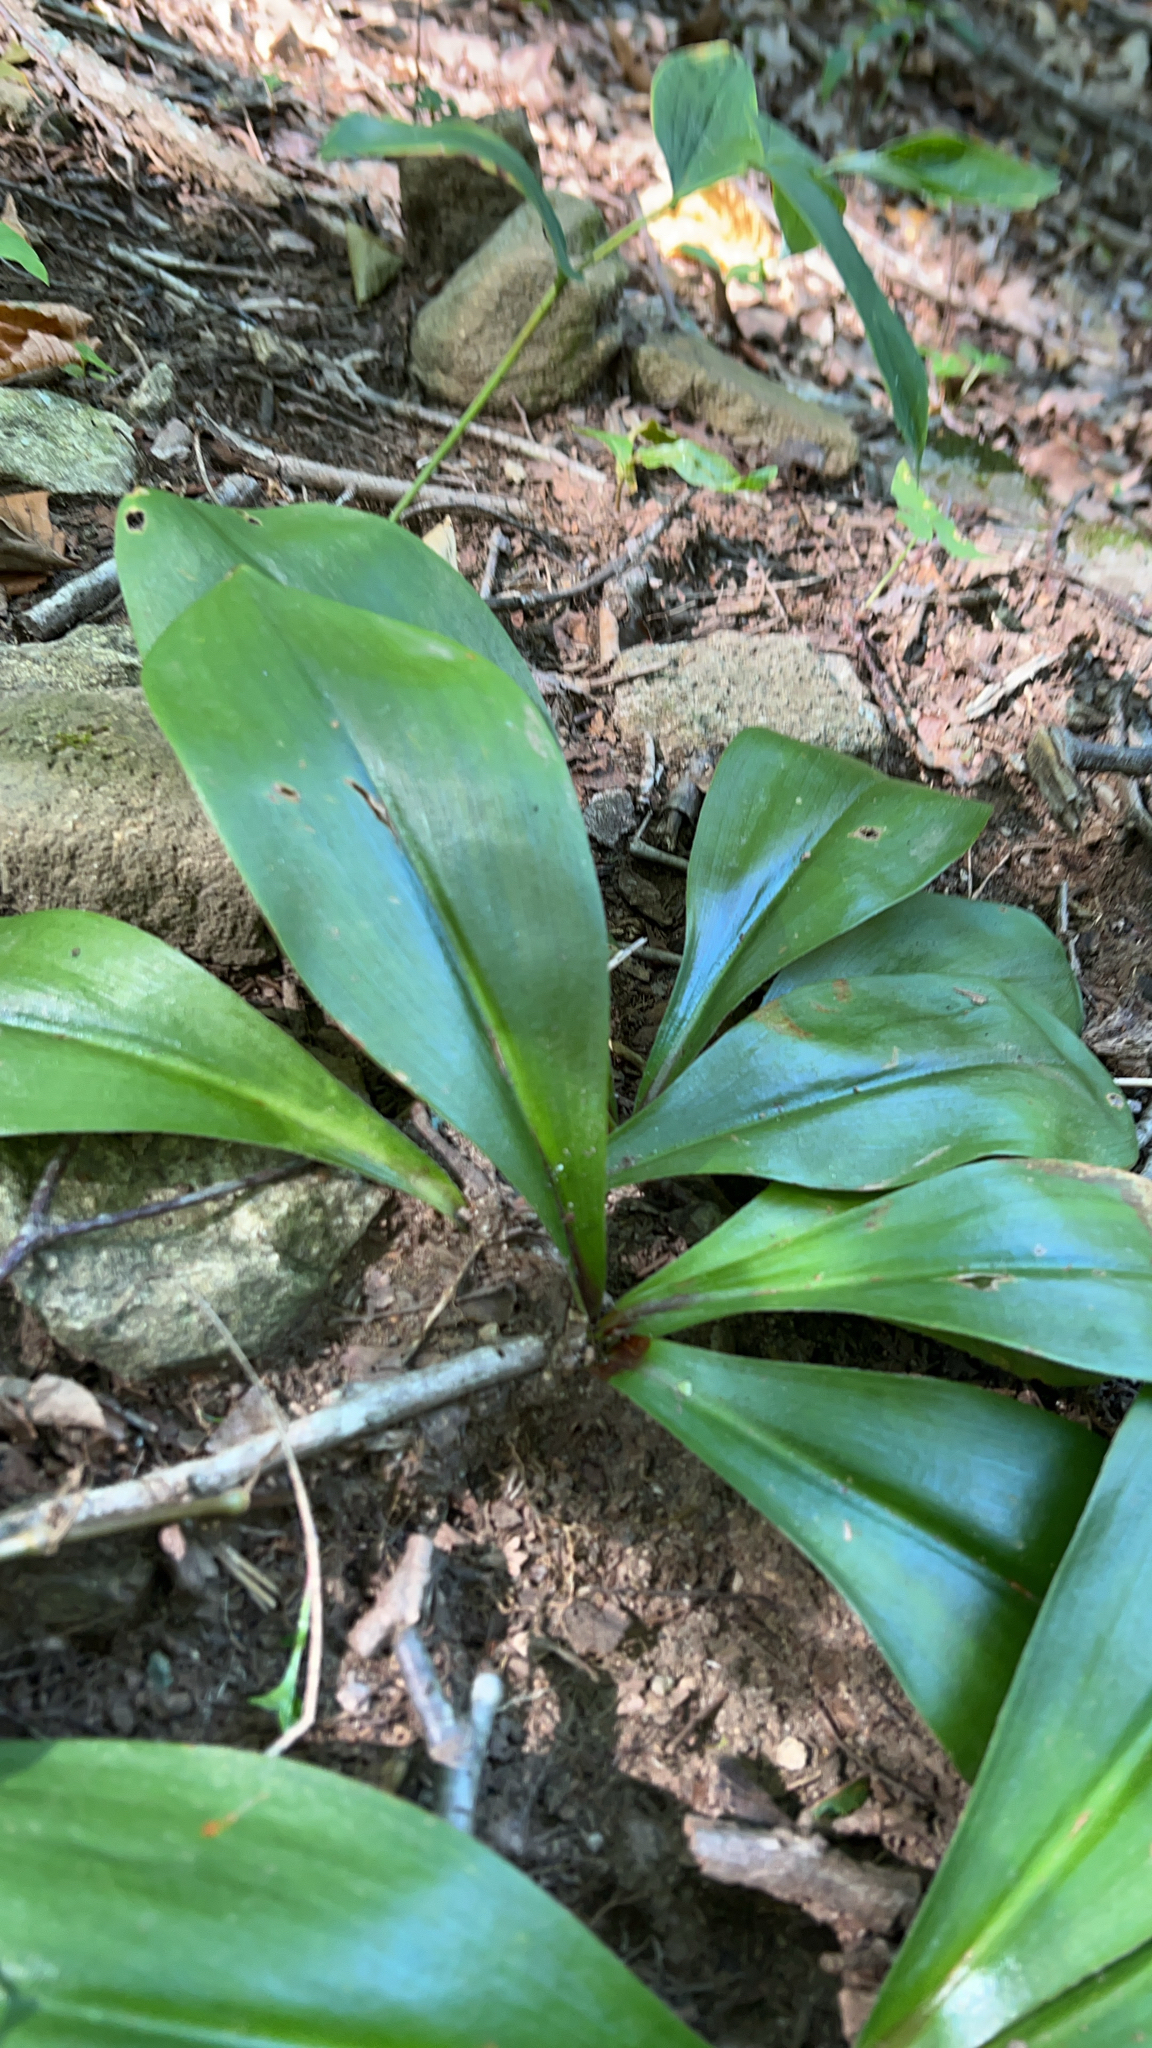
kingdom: Plantae
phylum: Tracheophyta
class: Liliopsida
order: Liliales
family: Liliaceae
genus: Clintonia
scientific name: Clintonia borealis
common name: Yellow clintonia
